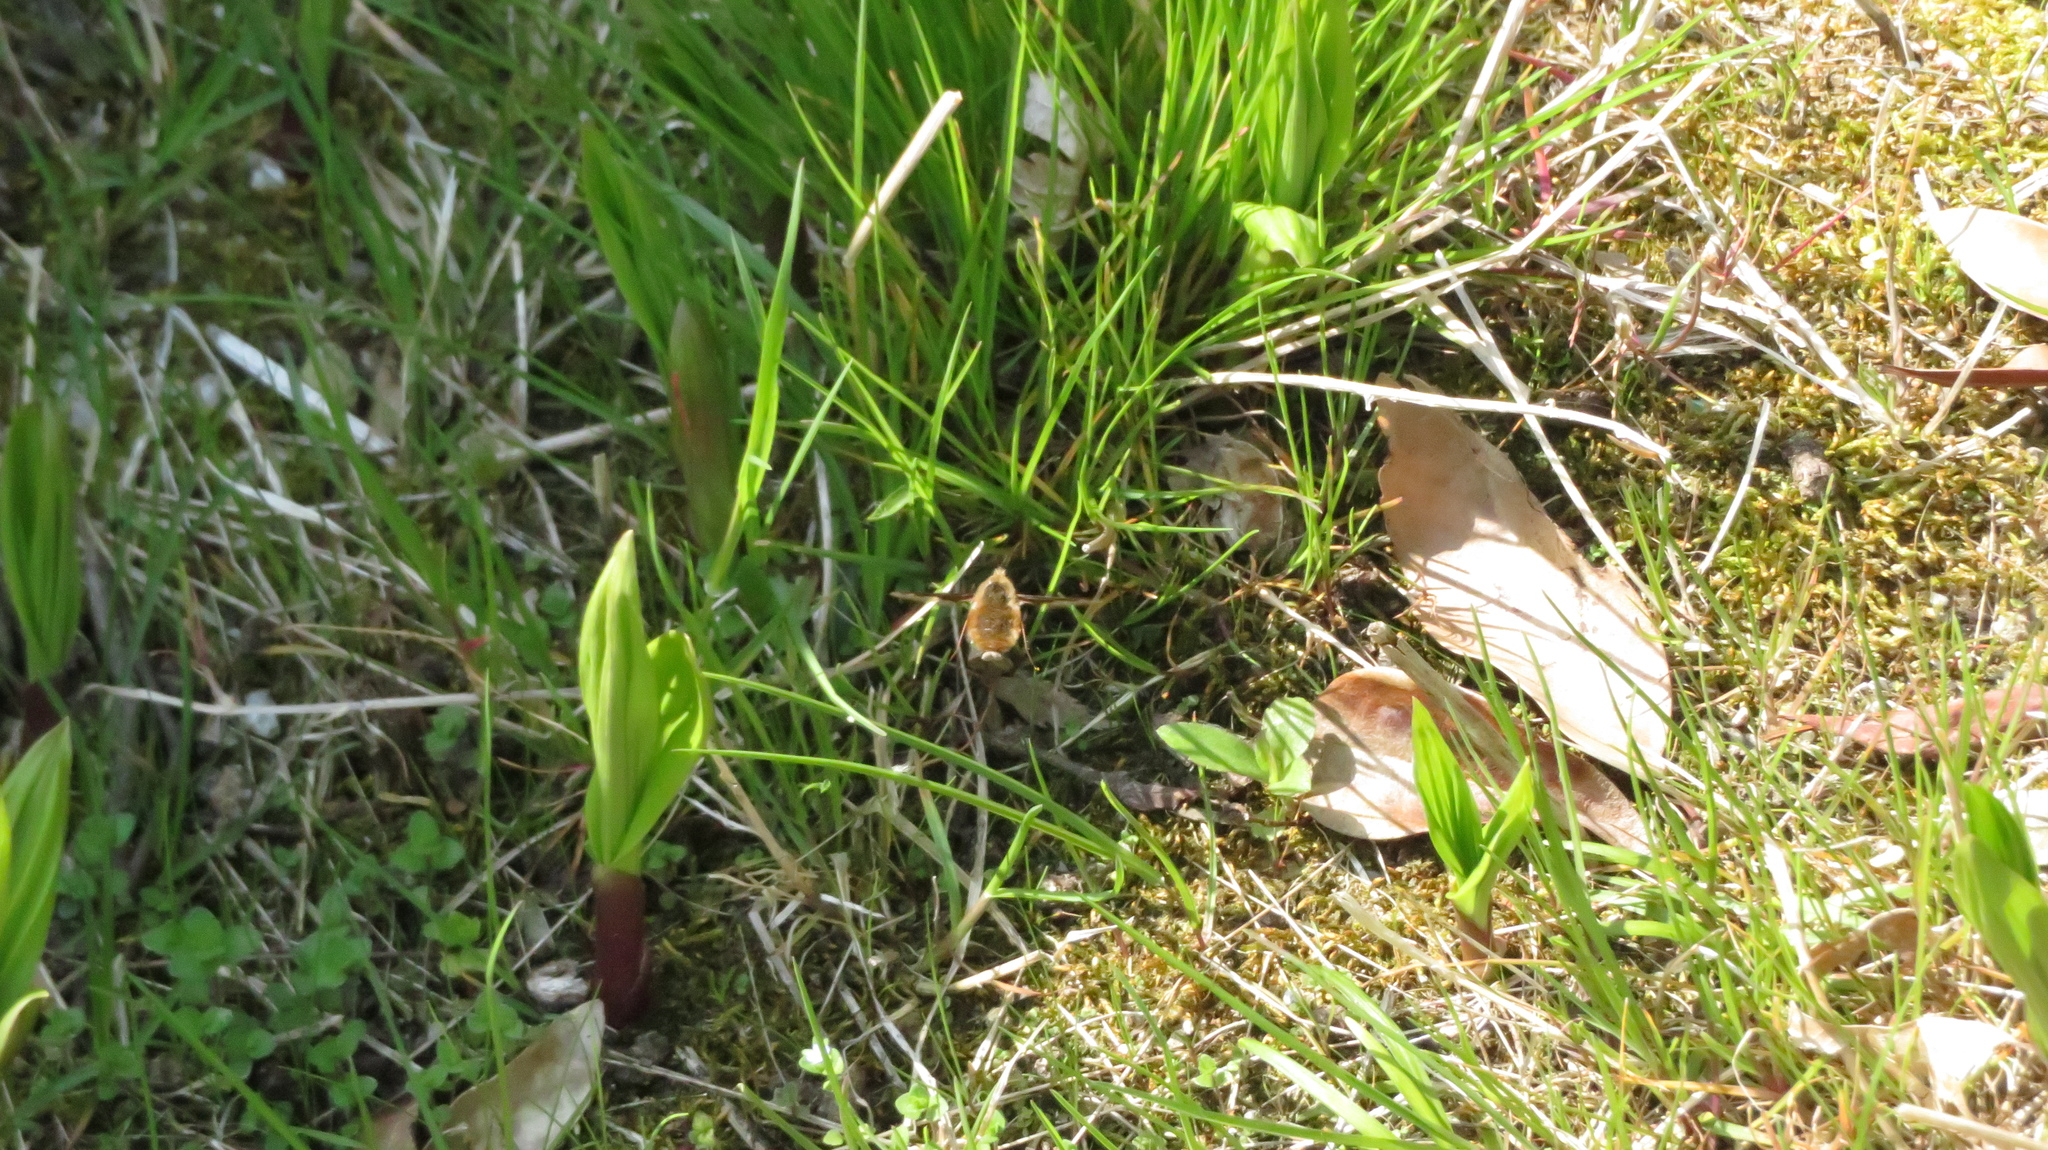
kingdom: Animalia
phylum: Arthropoda
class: Insecta
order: Diptera
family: Bombyliidae
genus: Bombylius
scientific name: Bombylius major
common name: Bee fly
